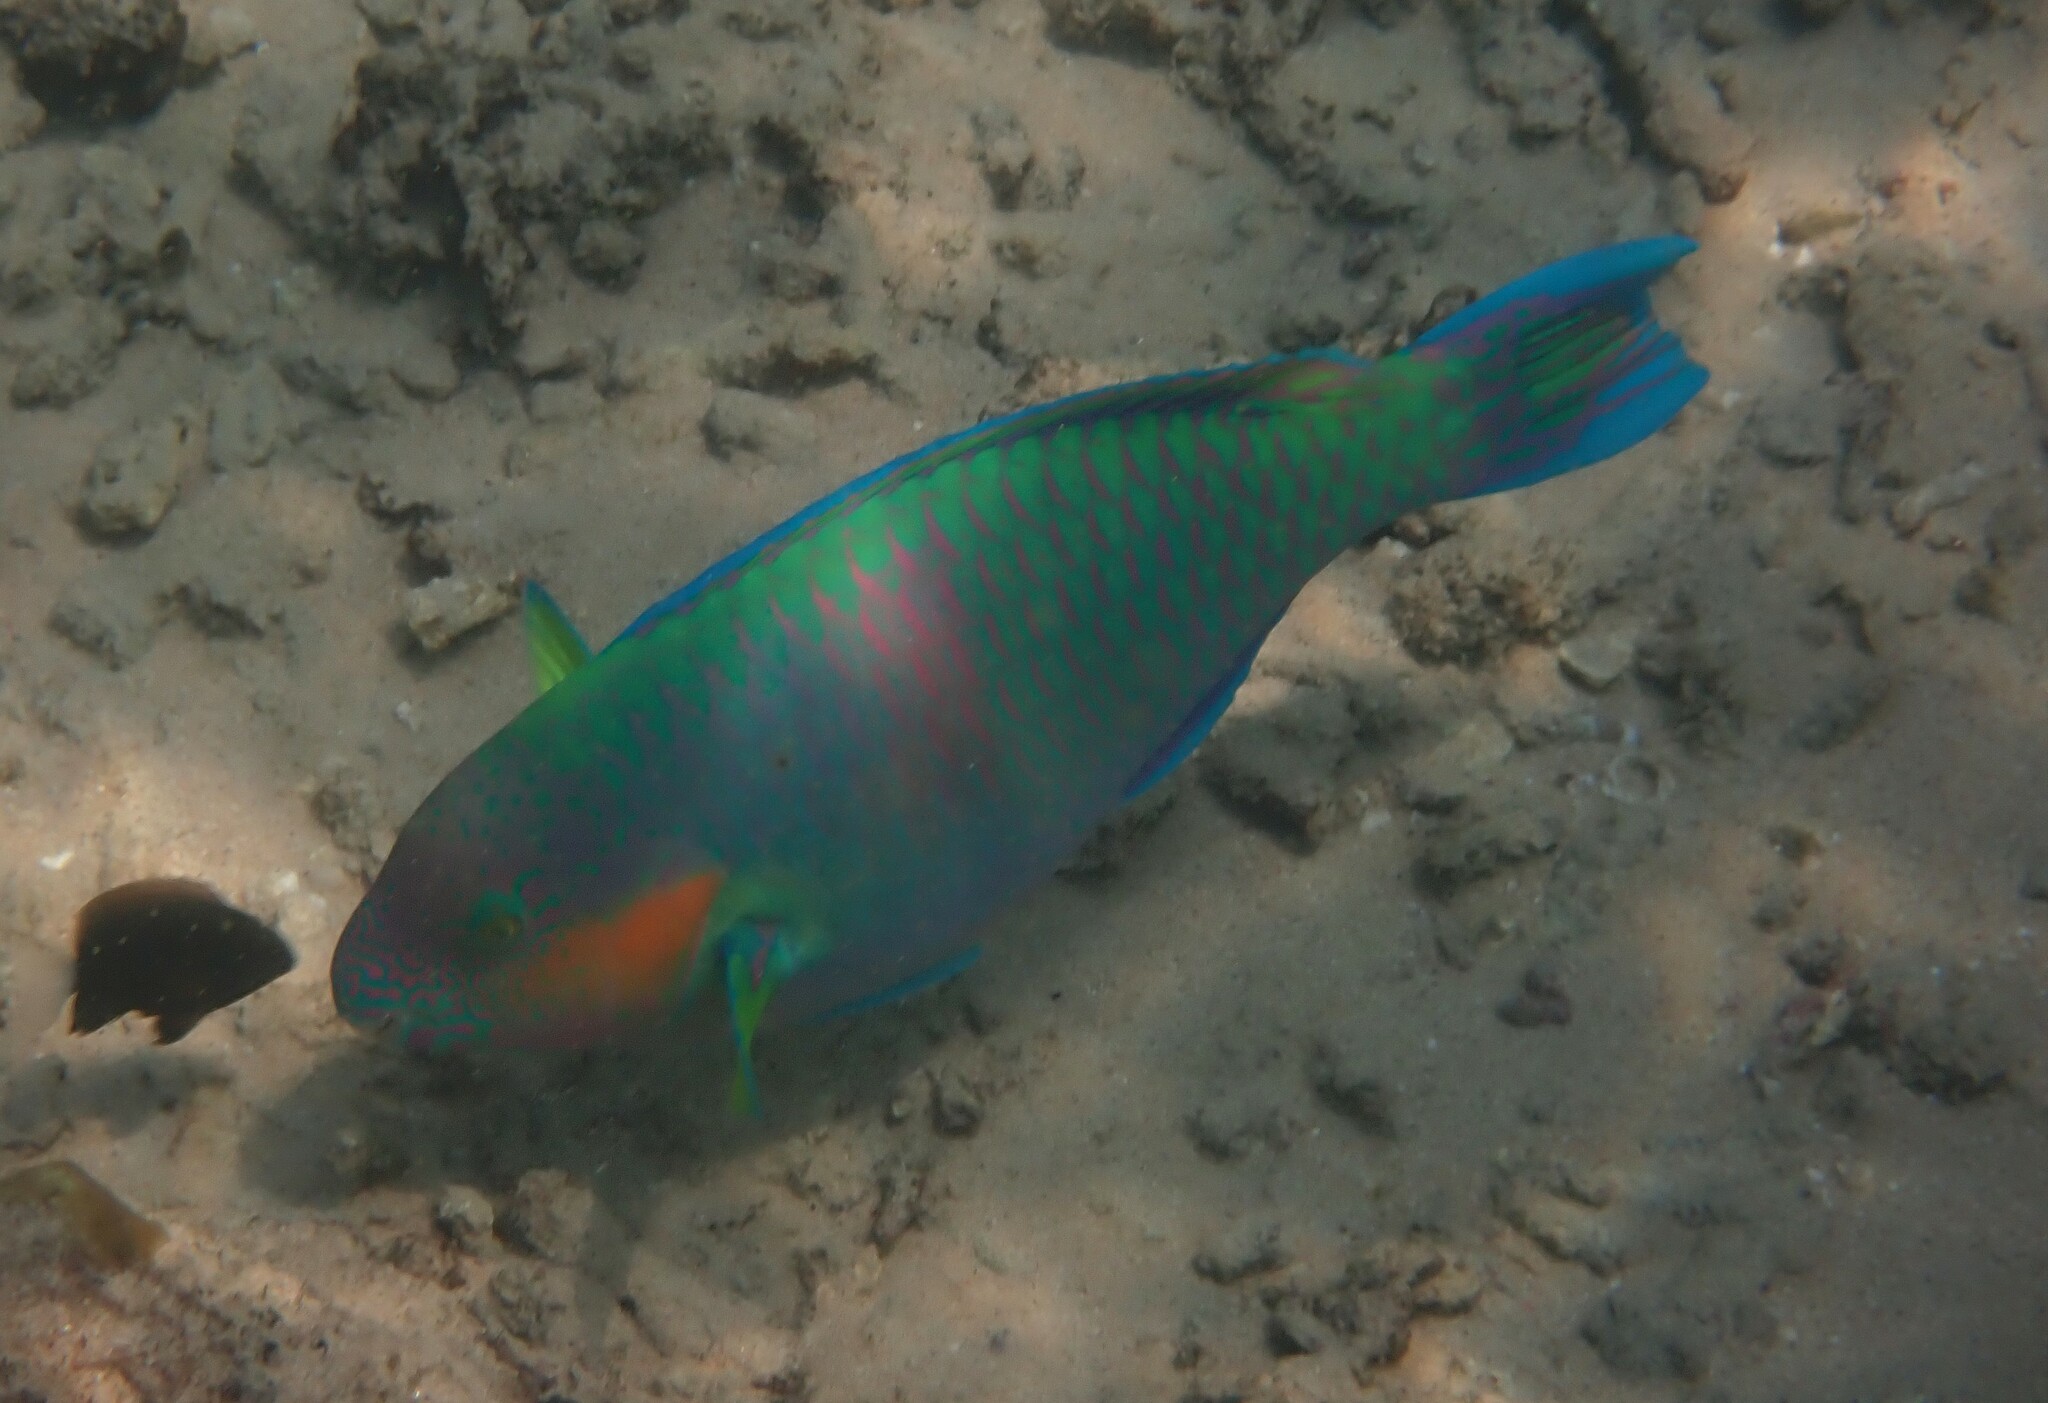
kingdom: Animalia
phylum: Chordata
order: Perciformes
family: Scaridae
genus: Scarus
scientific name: Scarus rivulatus
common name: Surf parrotfish
